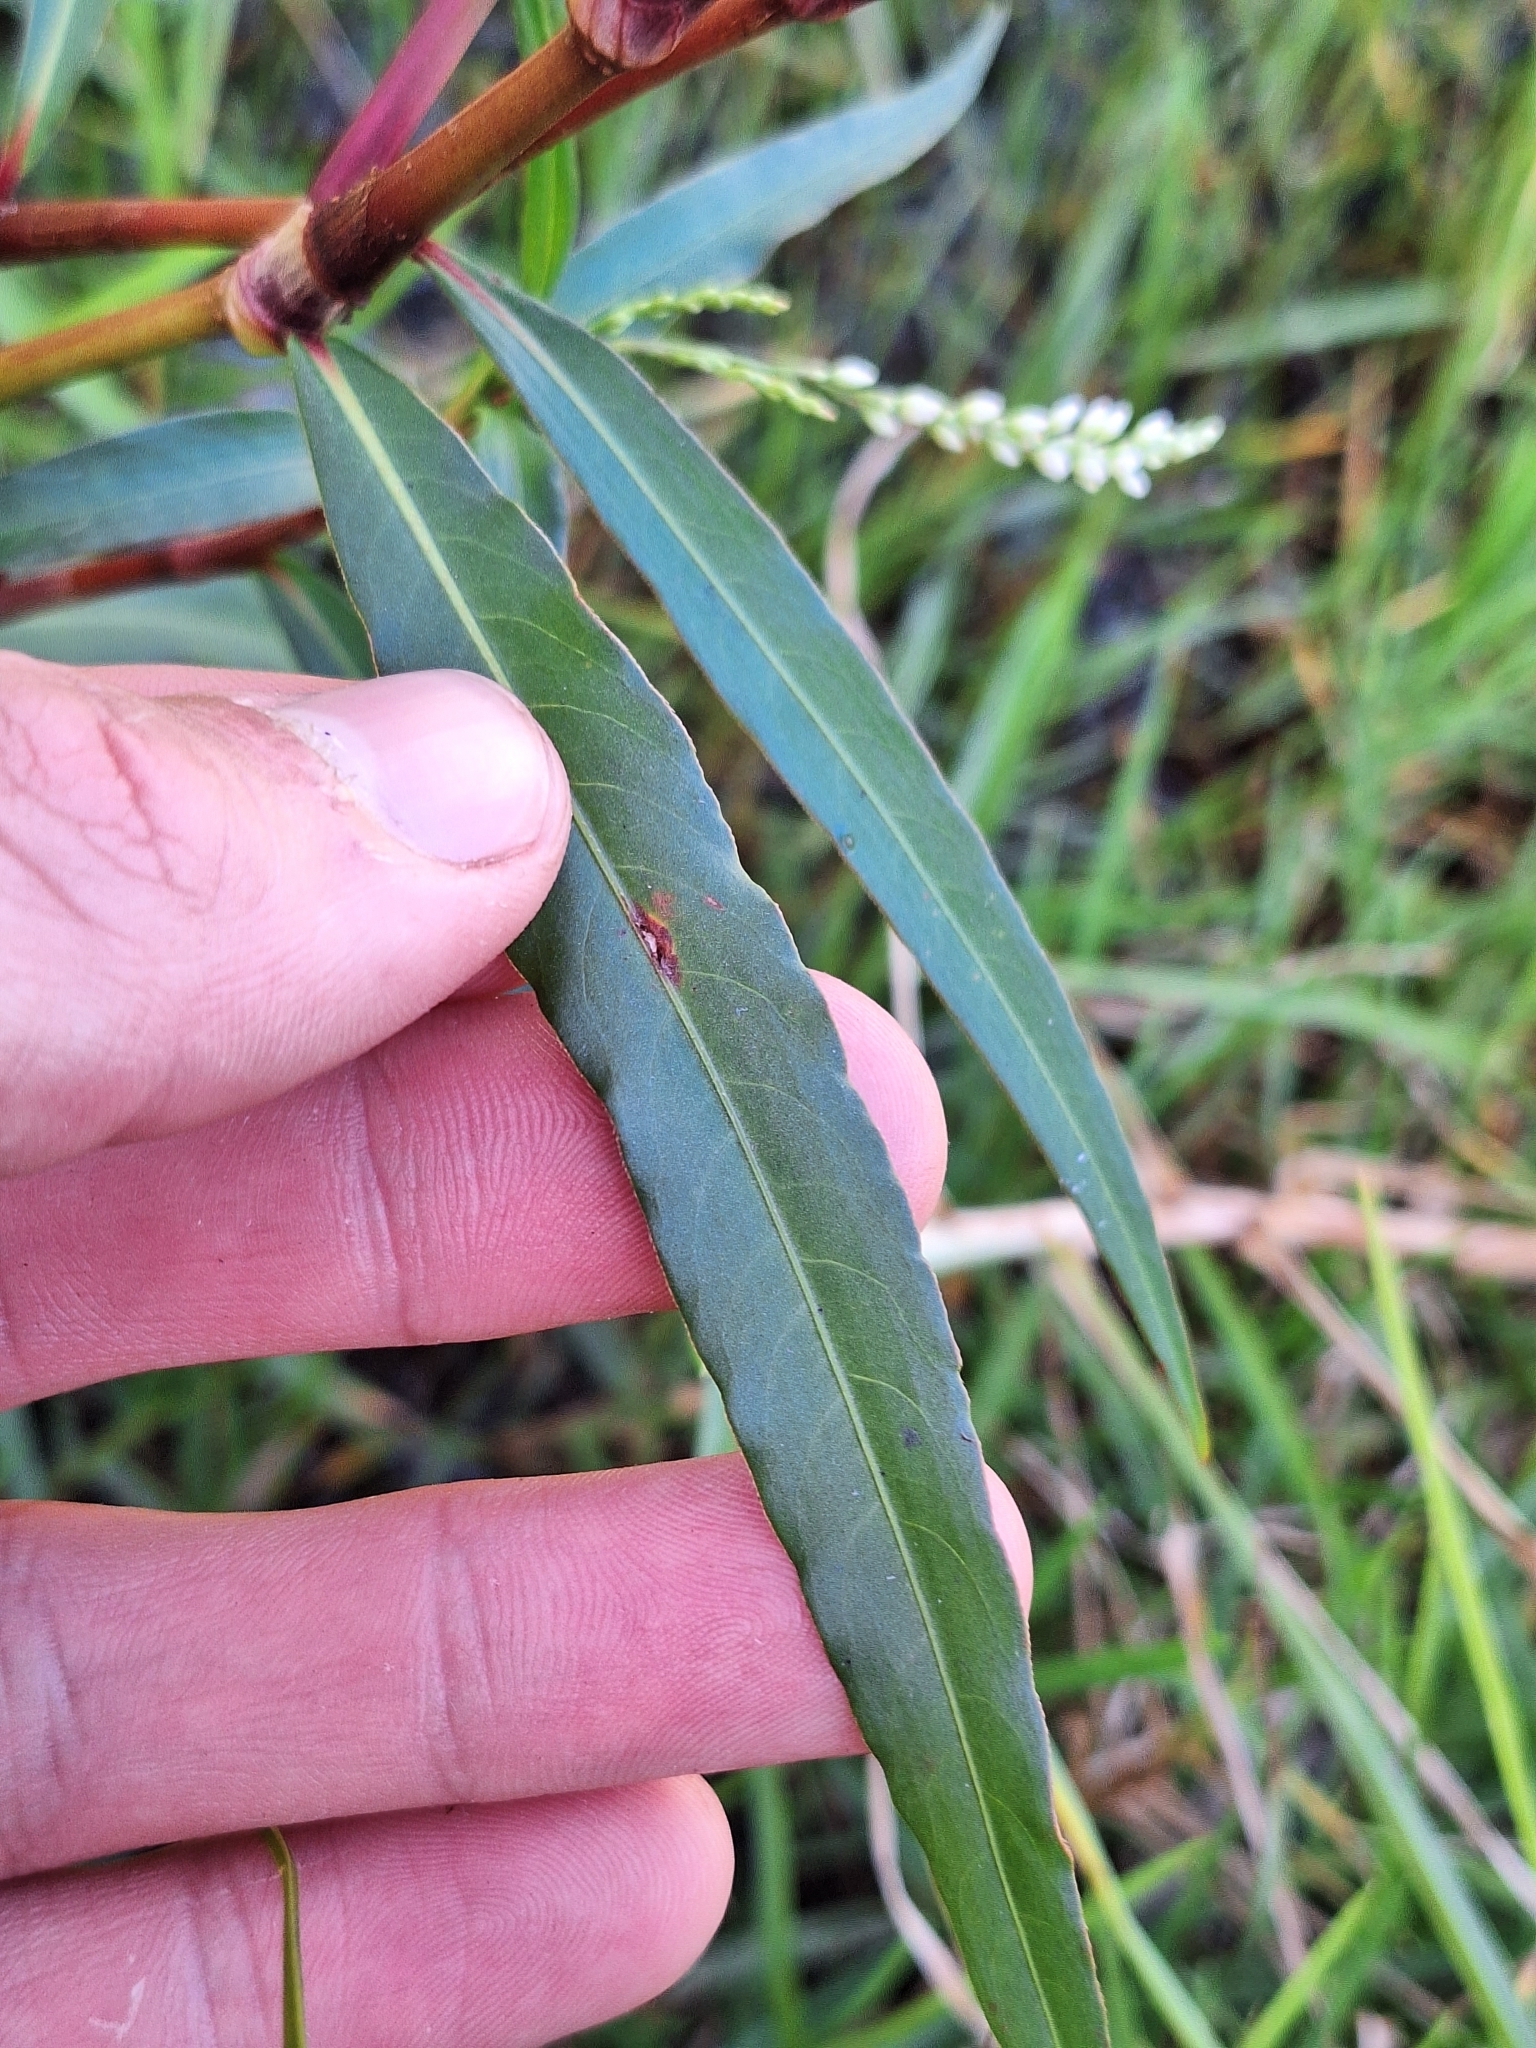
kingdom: Plantae
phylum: Tracheophyta
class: Magnoliopsida
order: Caryophyllales
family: Polygonaceae
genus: Persicaria
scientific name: Persicaria decipiens
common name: Willow-weed
